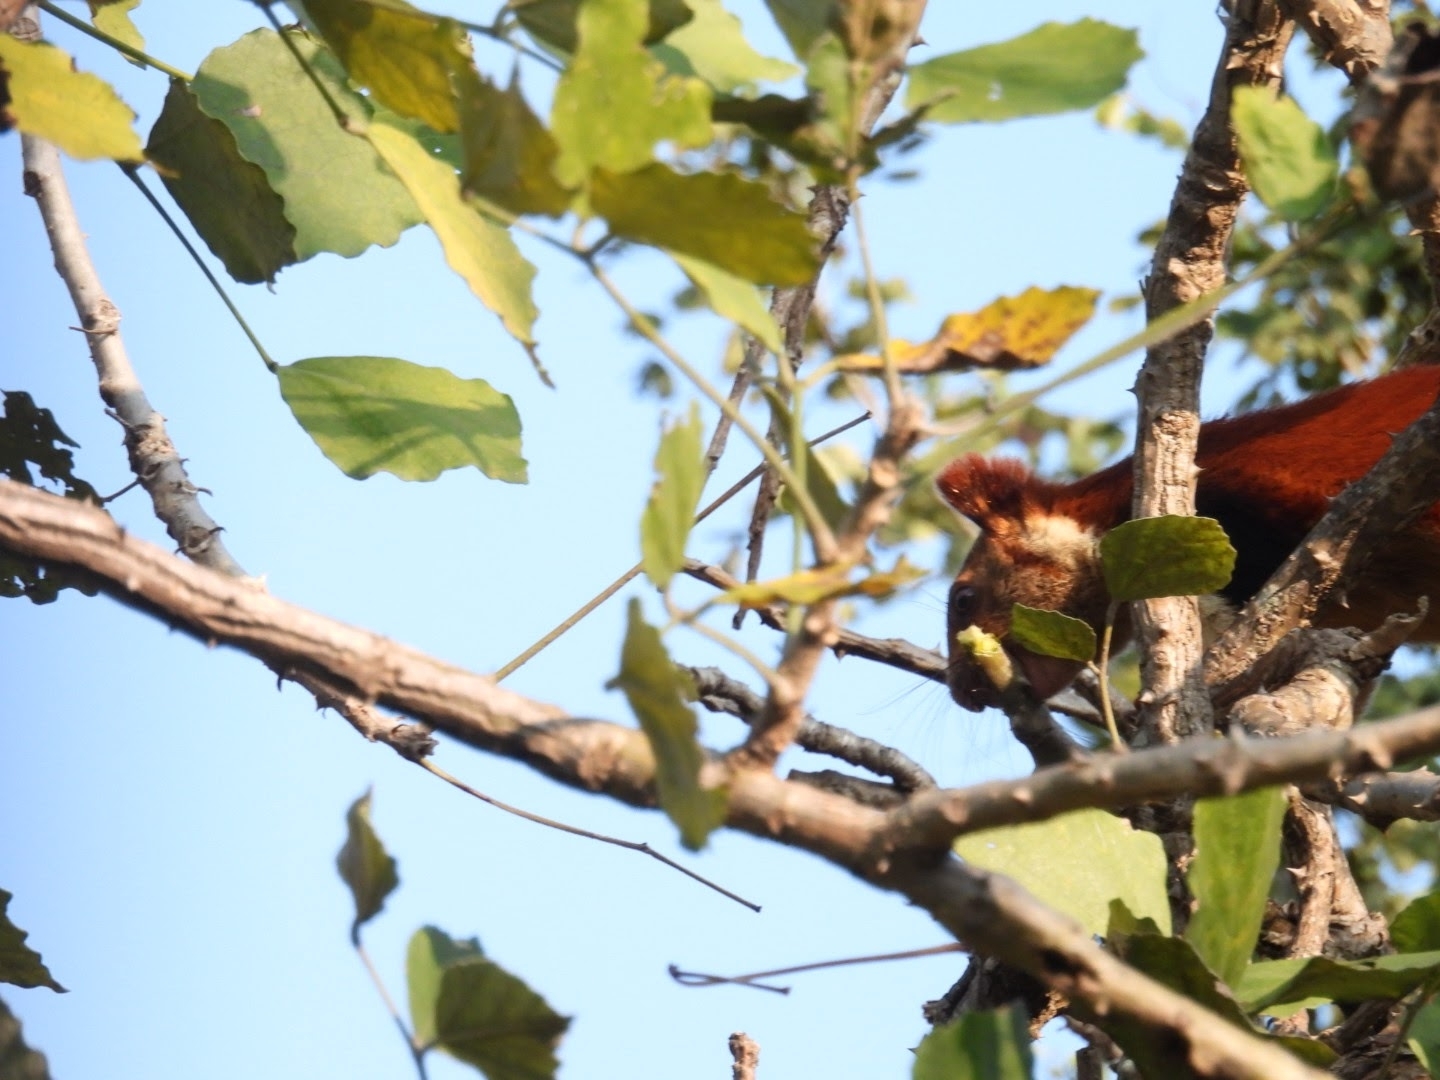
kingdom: Animalia
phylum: Chordata
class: Mammalia
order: Rodentia
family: Sciuridae
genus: Ratufa
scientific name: Ratufa indica
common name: Indian giant squirrel
